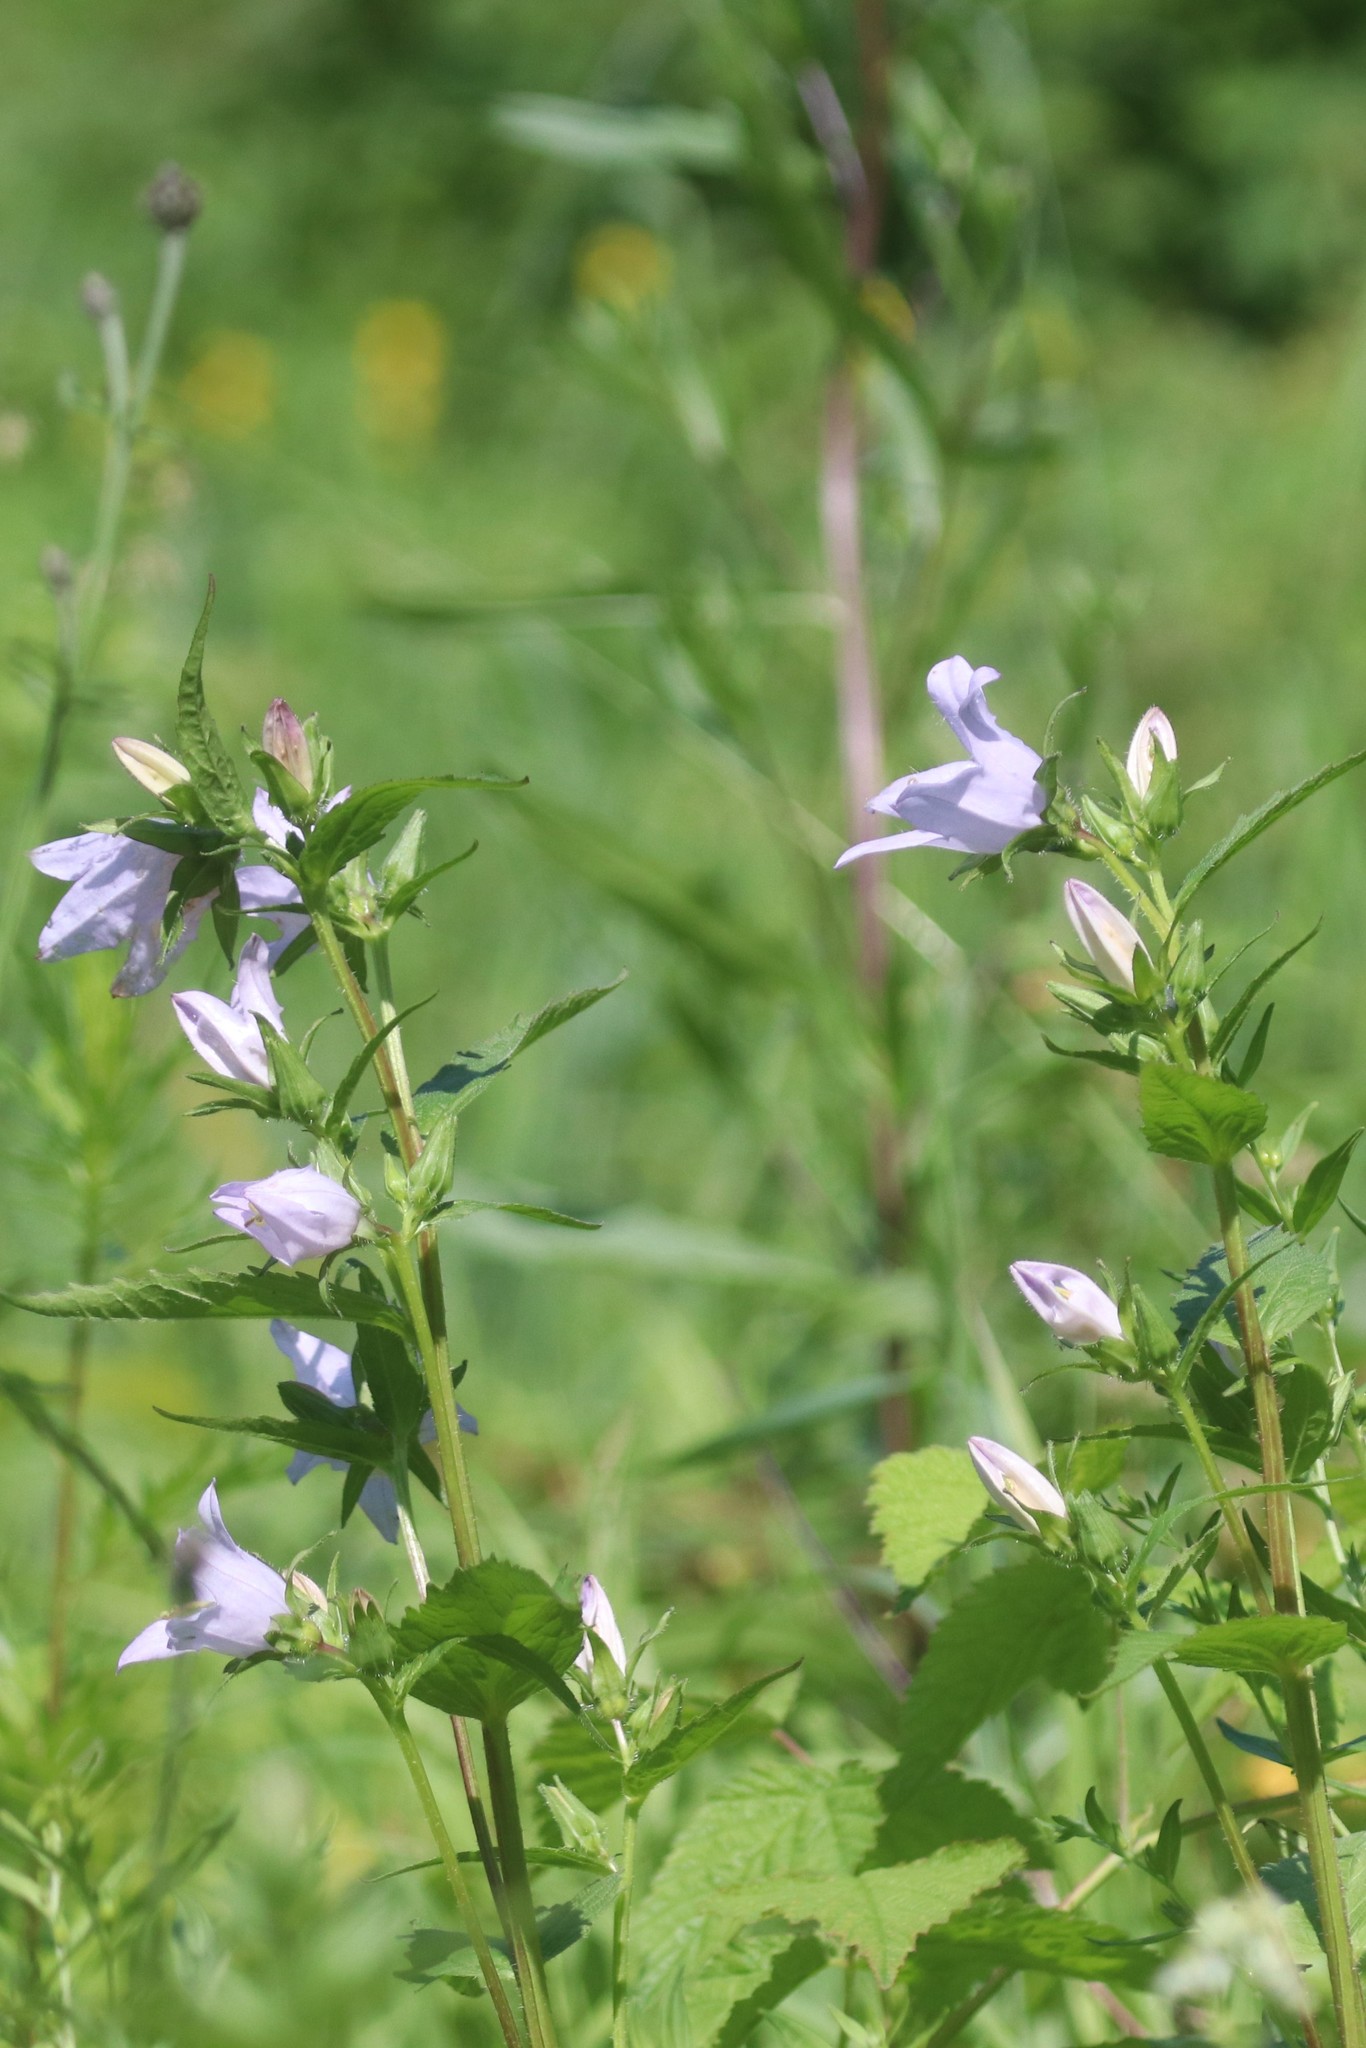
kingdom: Plantae
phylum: Tracheophyta
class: Magnoliopsida
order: Asterales
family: Campanulaceae
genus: Campanula
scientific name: Campanula trachelium
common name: Nettle-leaved bellflower
